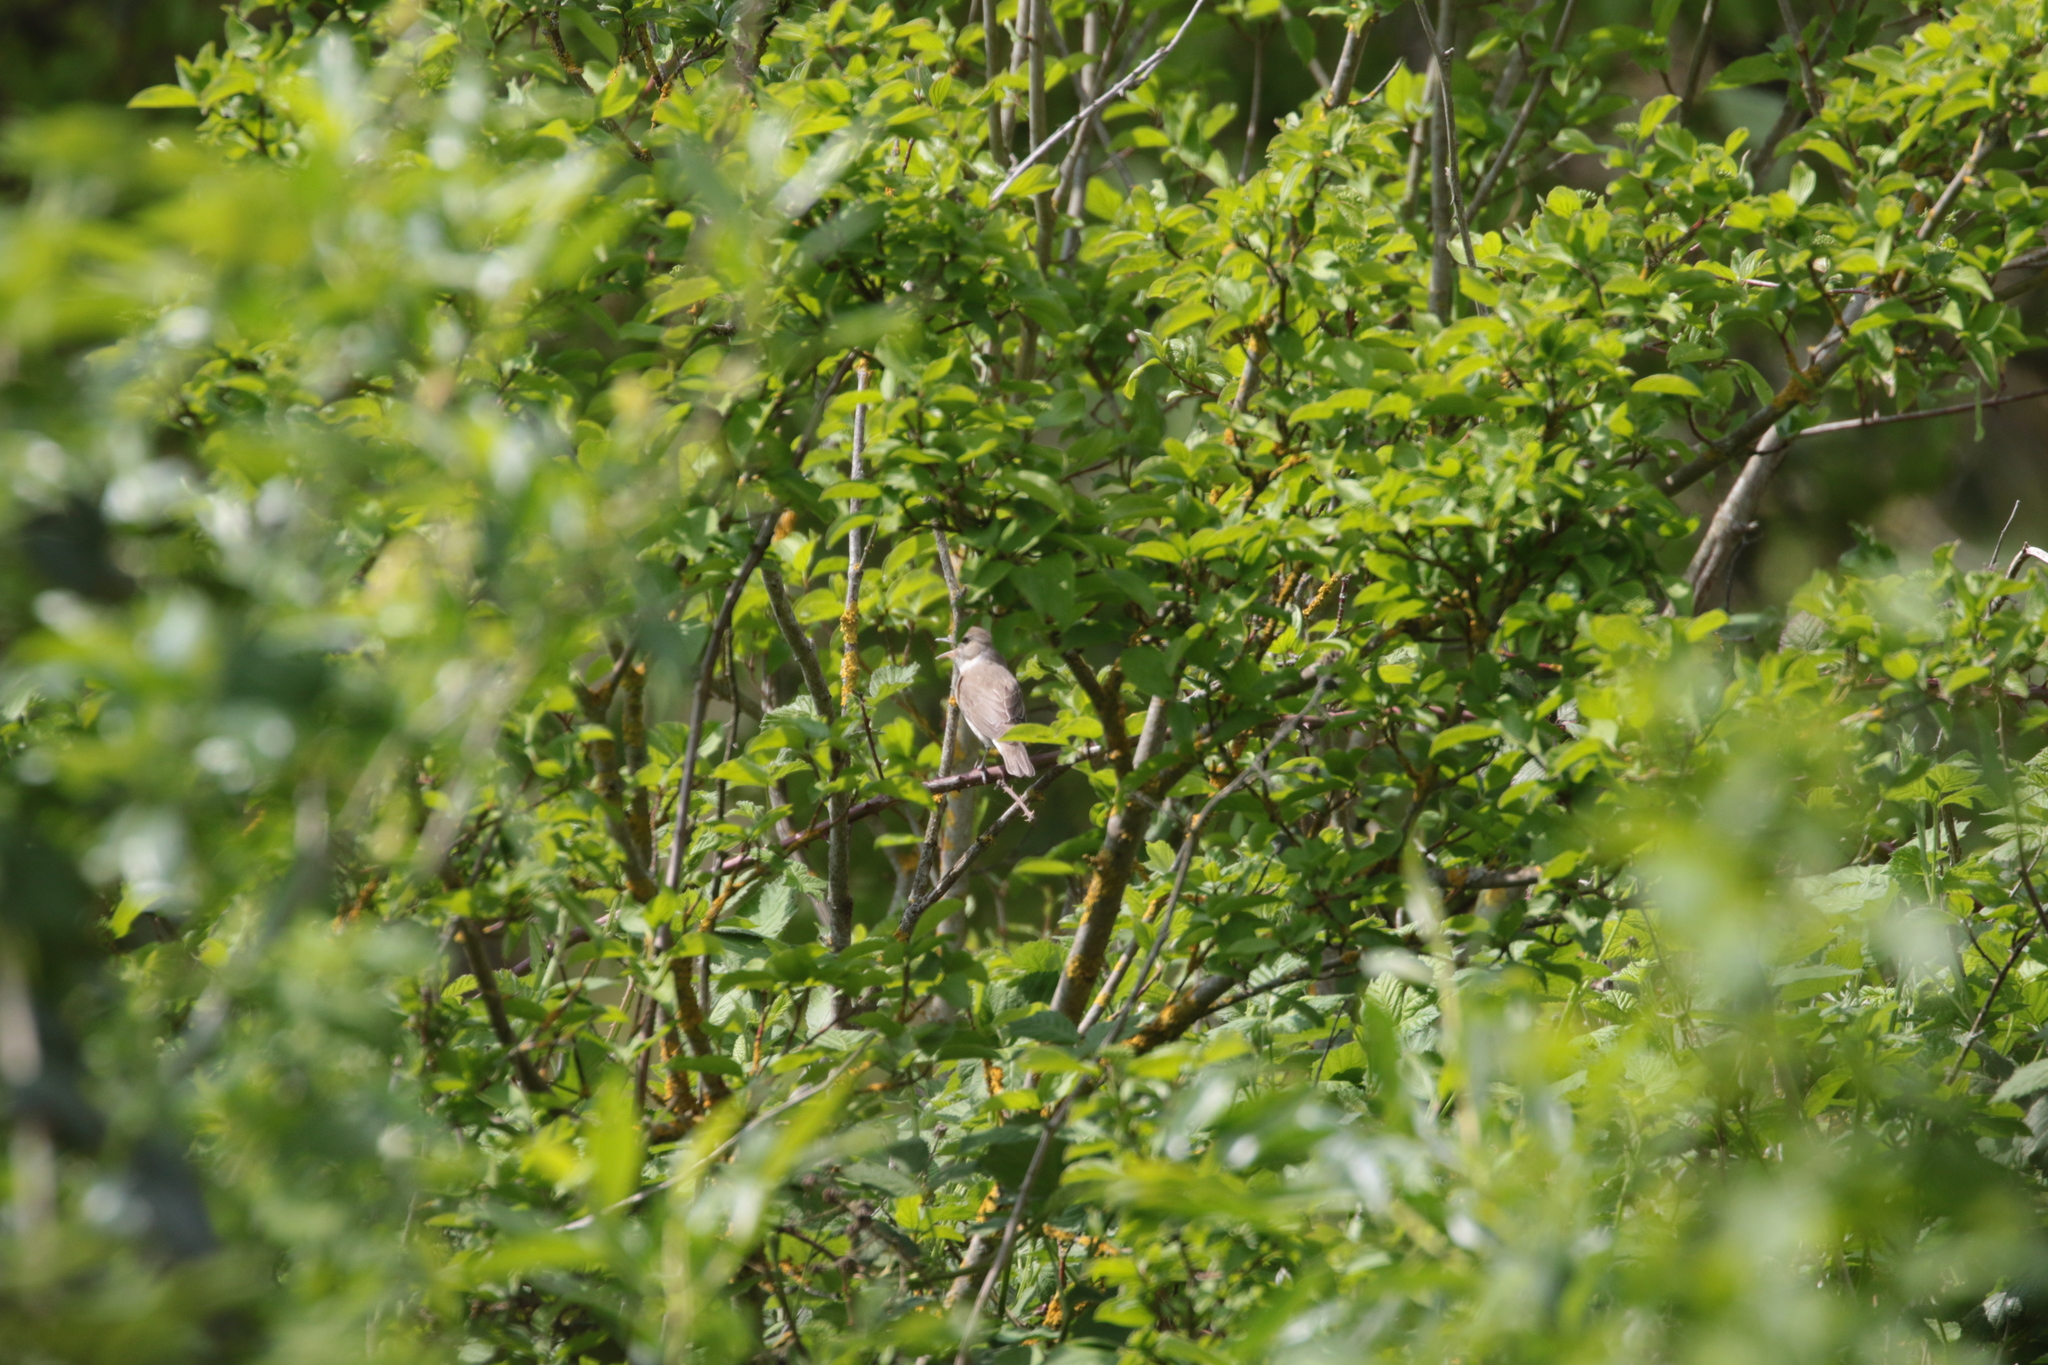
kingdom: Animalia
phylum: Chordata
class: Aves
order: Passeriformes
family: Sylviidae
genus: Sylvia
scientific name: Sylvia borin
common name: Garden warbler
